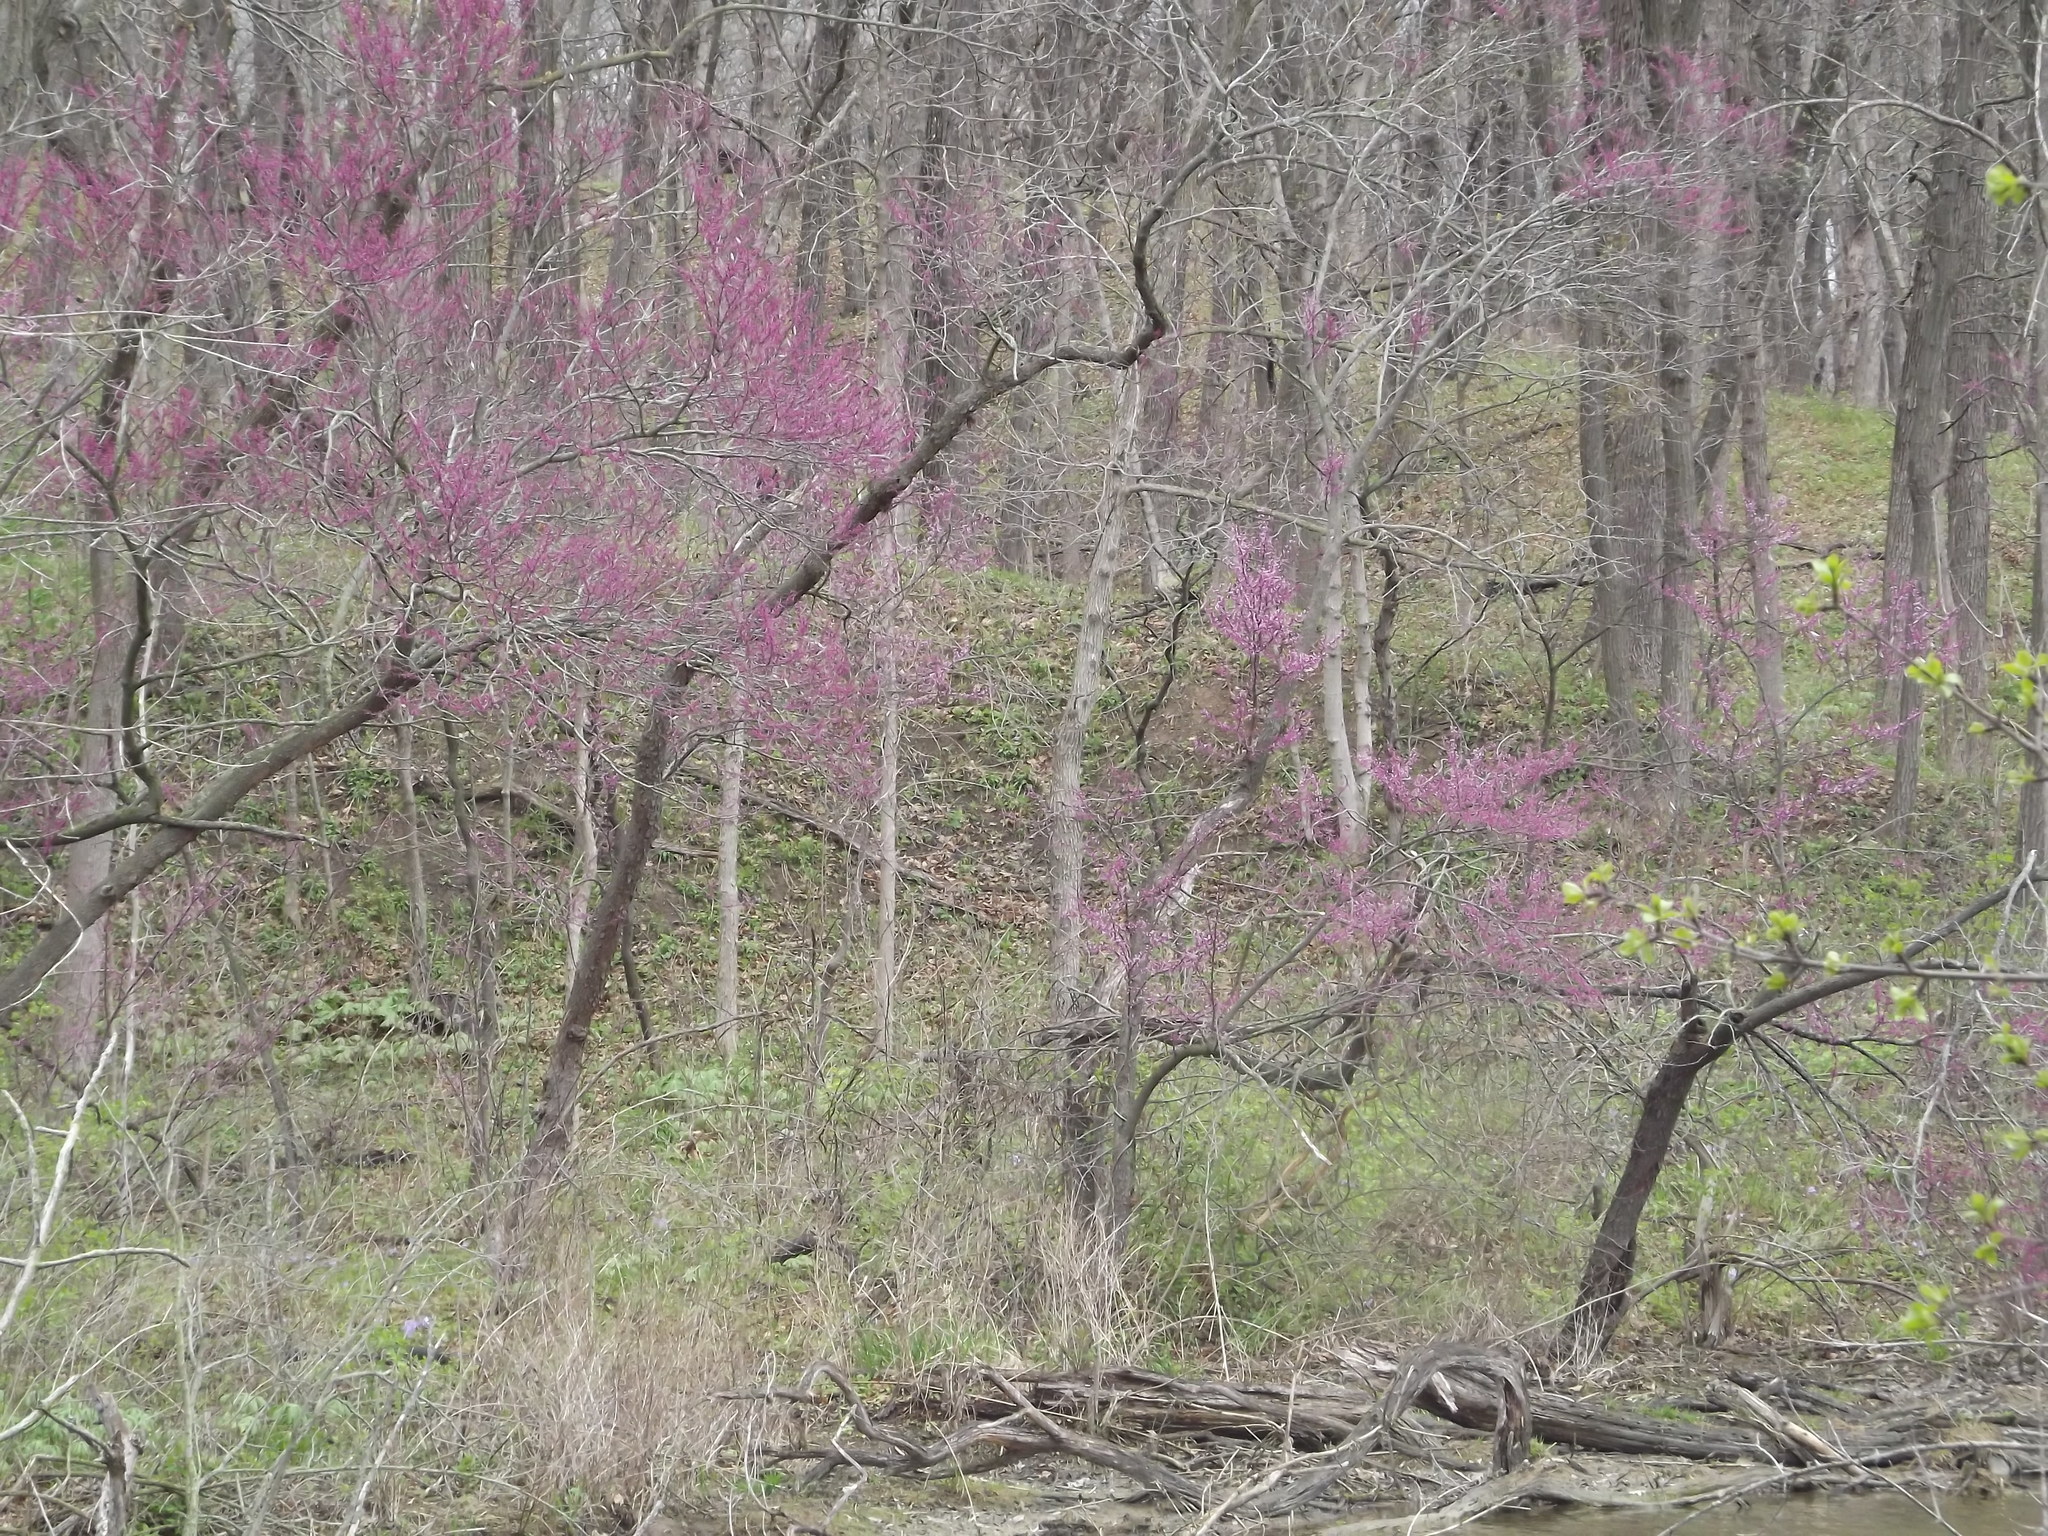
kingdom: Plantae
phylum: Tracheophyta
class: Magnoliopsida
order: Fabales
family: Fabaceae
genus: Cercis
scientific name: Cercis canadensis
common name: Eastern redbud
